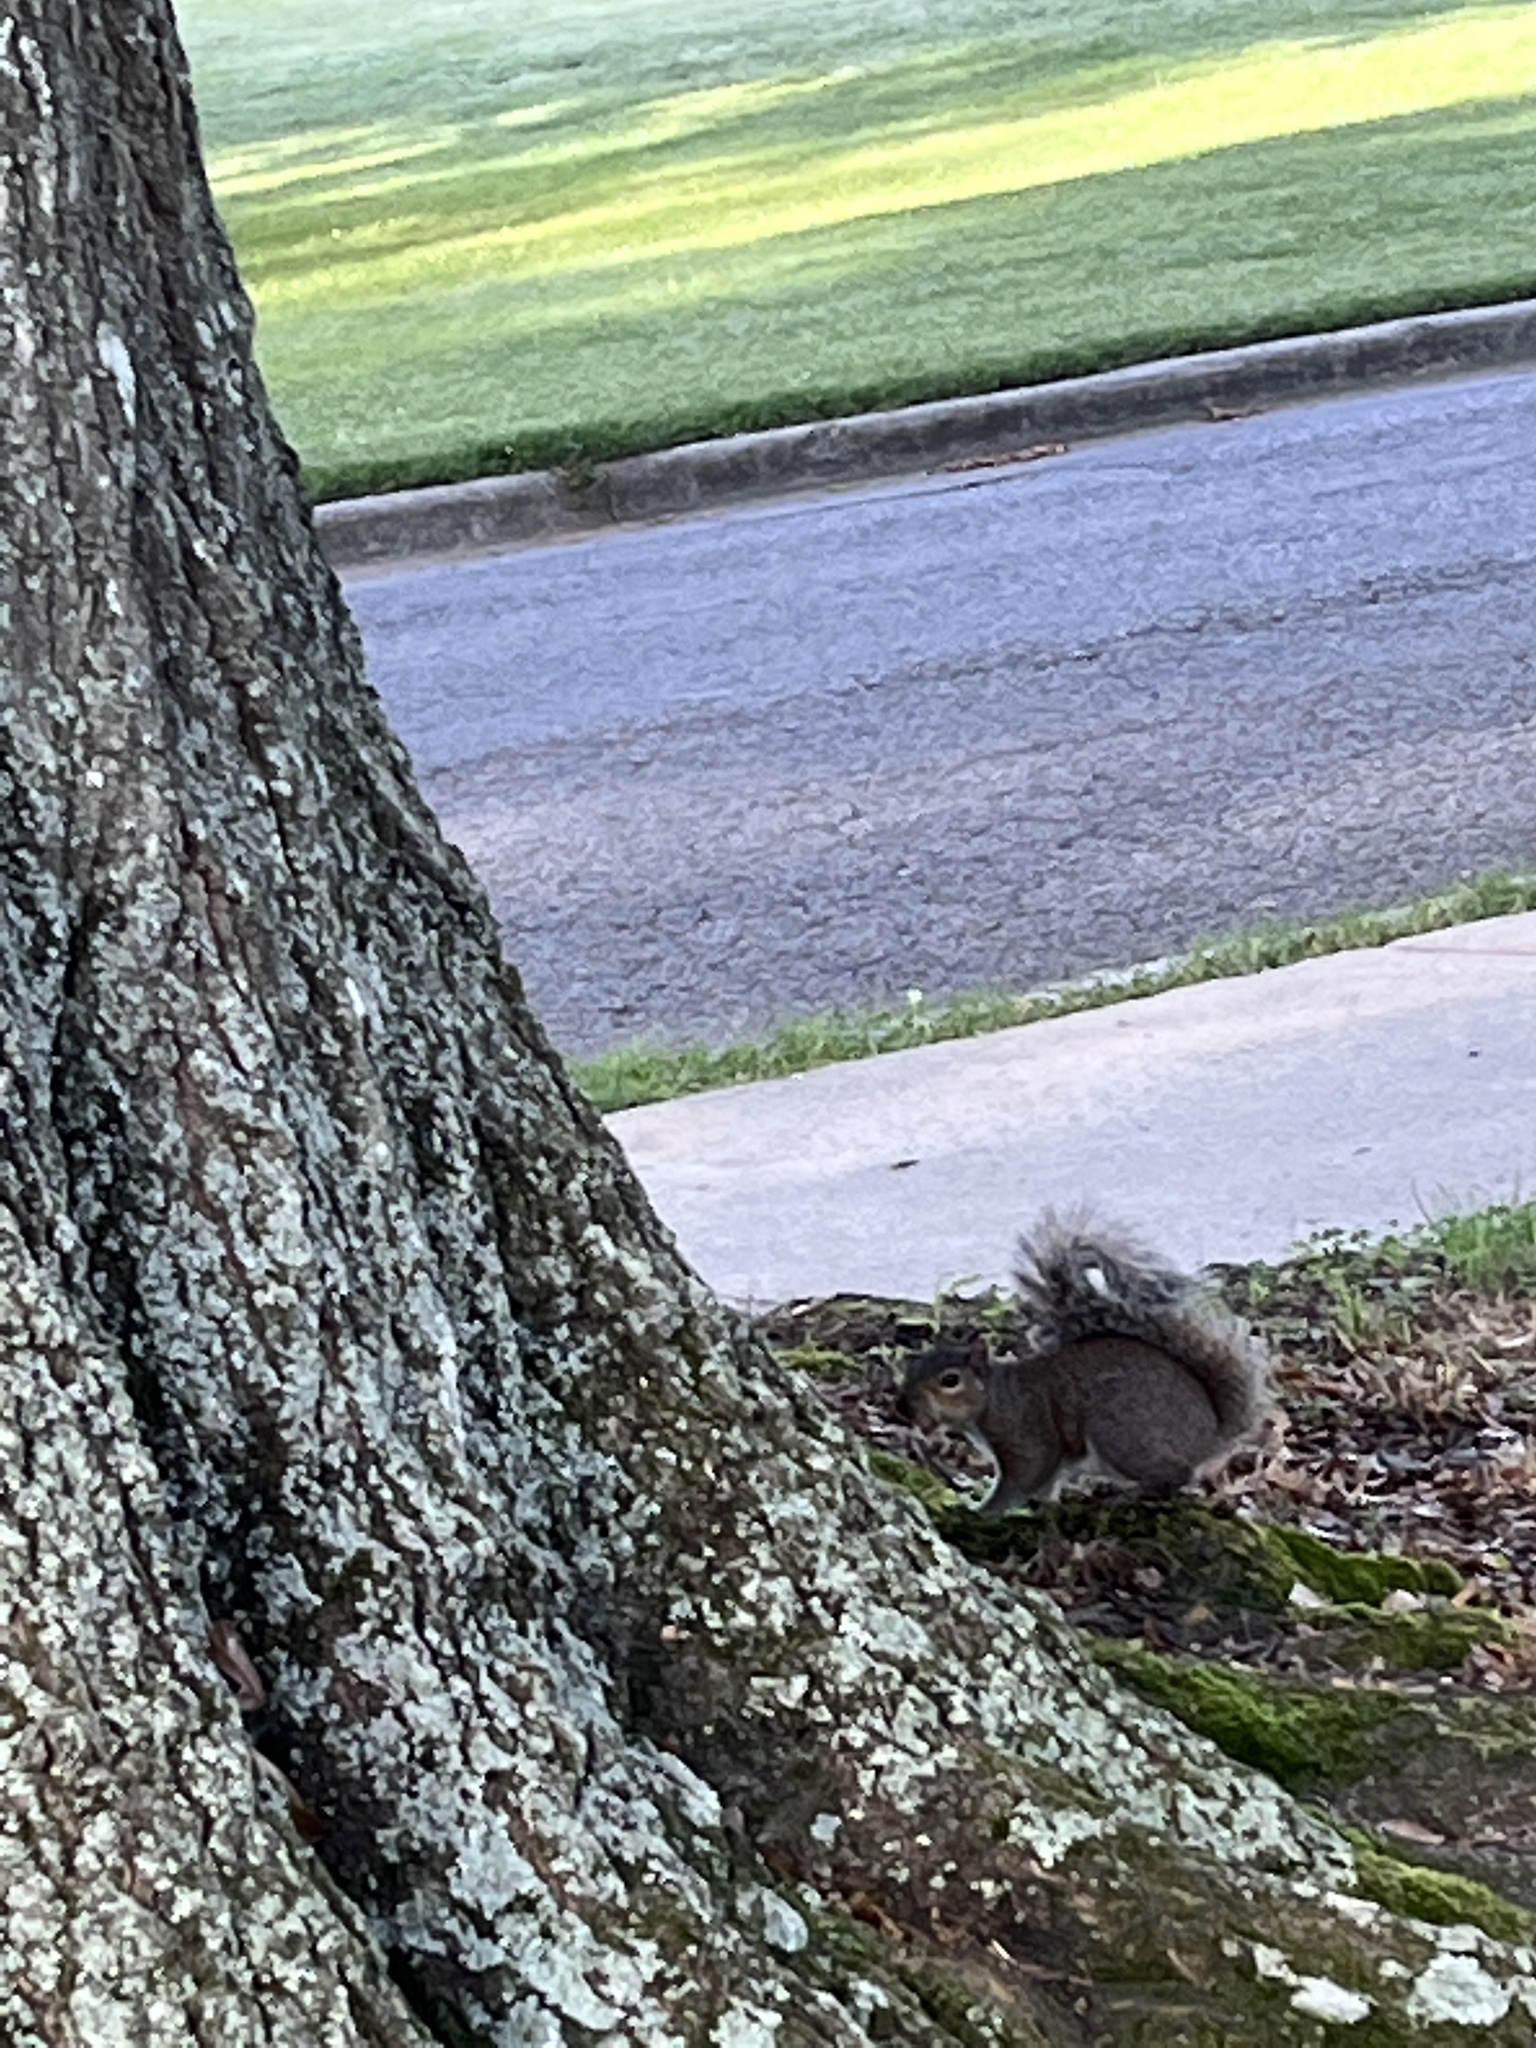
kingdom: Animalia
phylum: Chordata
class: Mammalia
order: Rodentia
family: Sciuridae
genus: Sciurus
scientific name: Sciurus carolinensis
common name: Eastern gray squirrel
